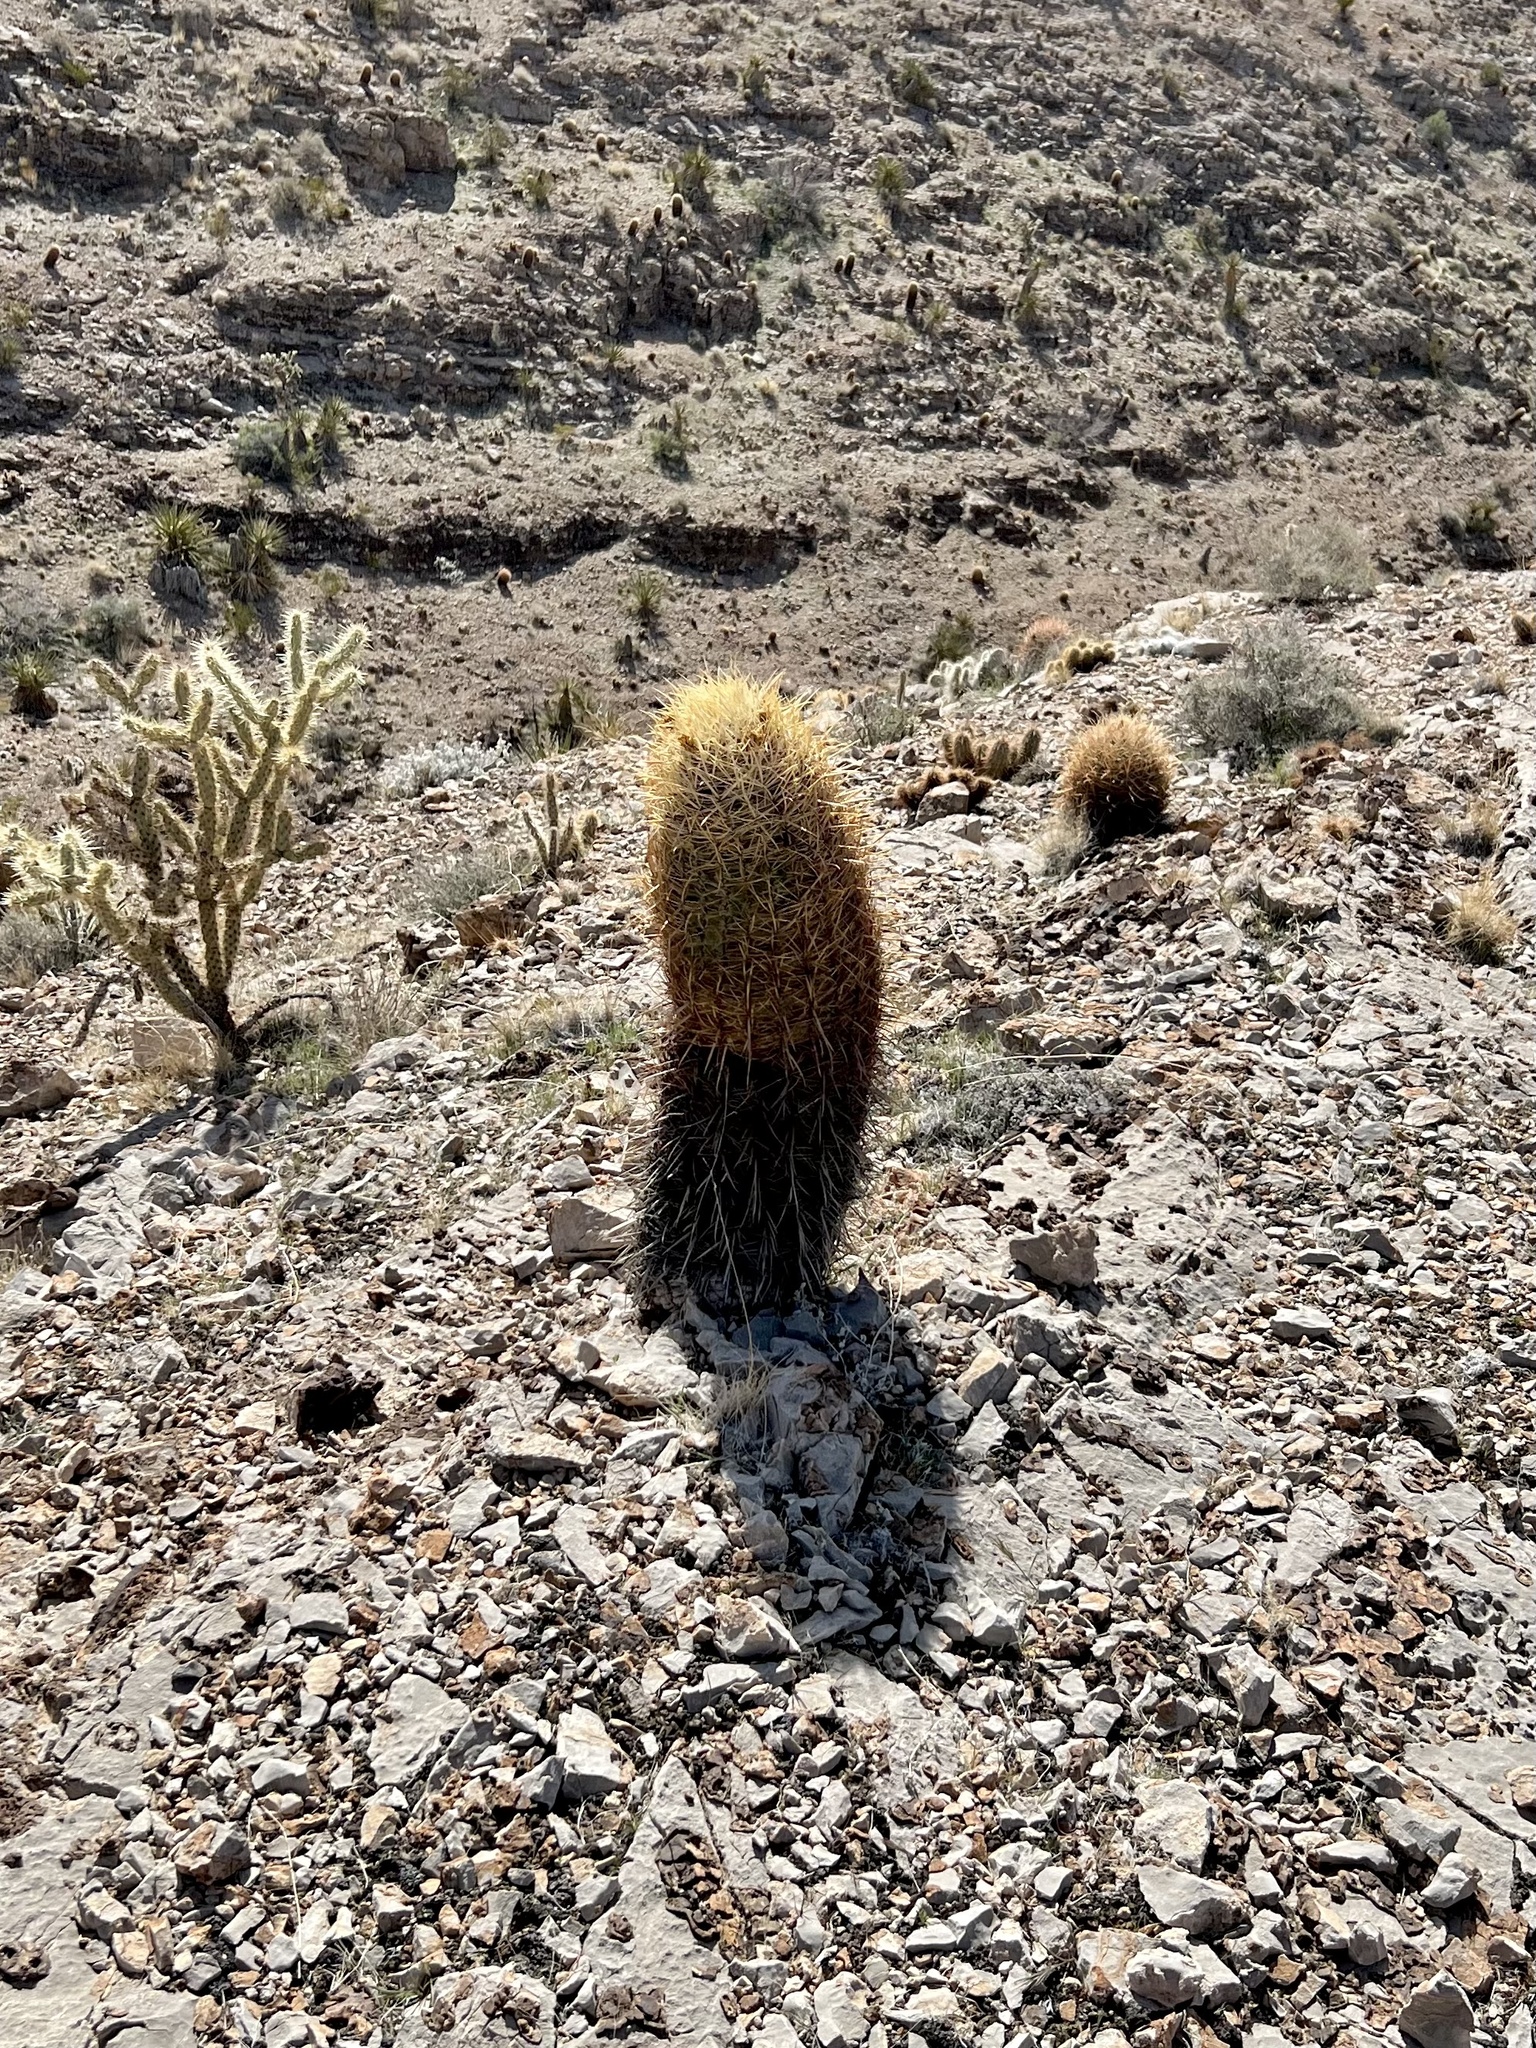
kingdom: Plantae
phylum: Tracheophyta
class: Magnoliopsida
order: Caryophyllales
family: Cactaceae
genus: Ferocactus
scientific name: Ferocactus cylindraceus
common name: California barrel cactus
